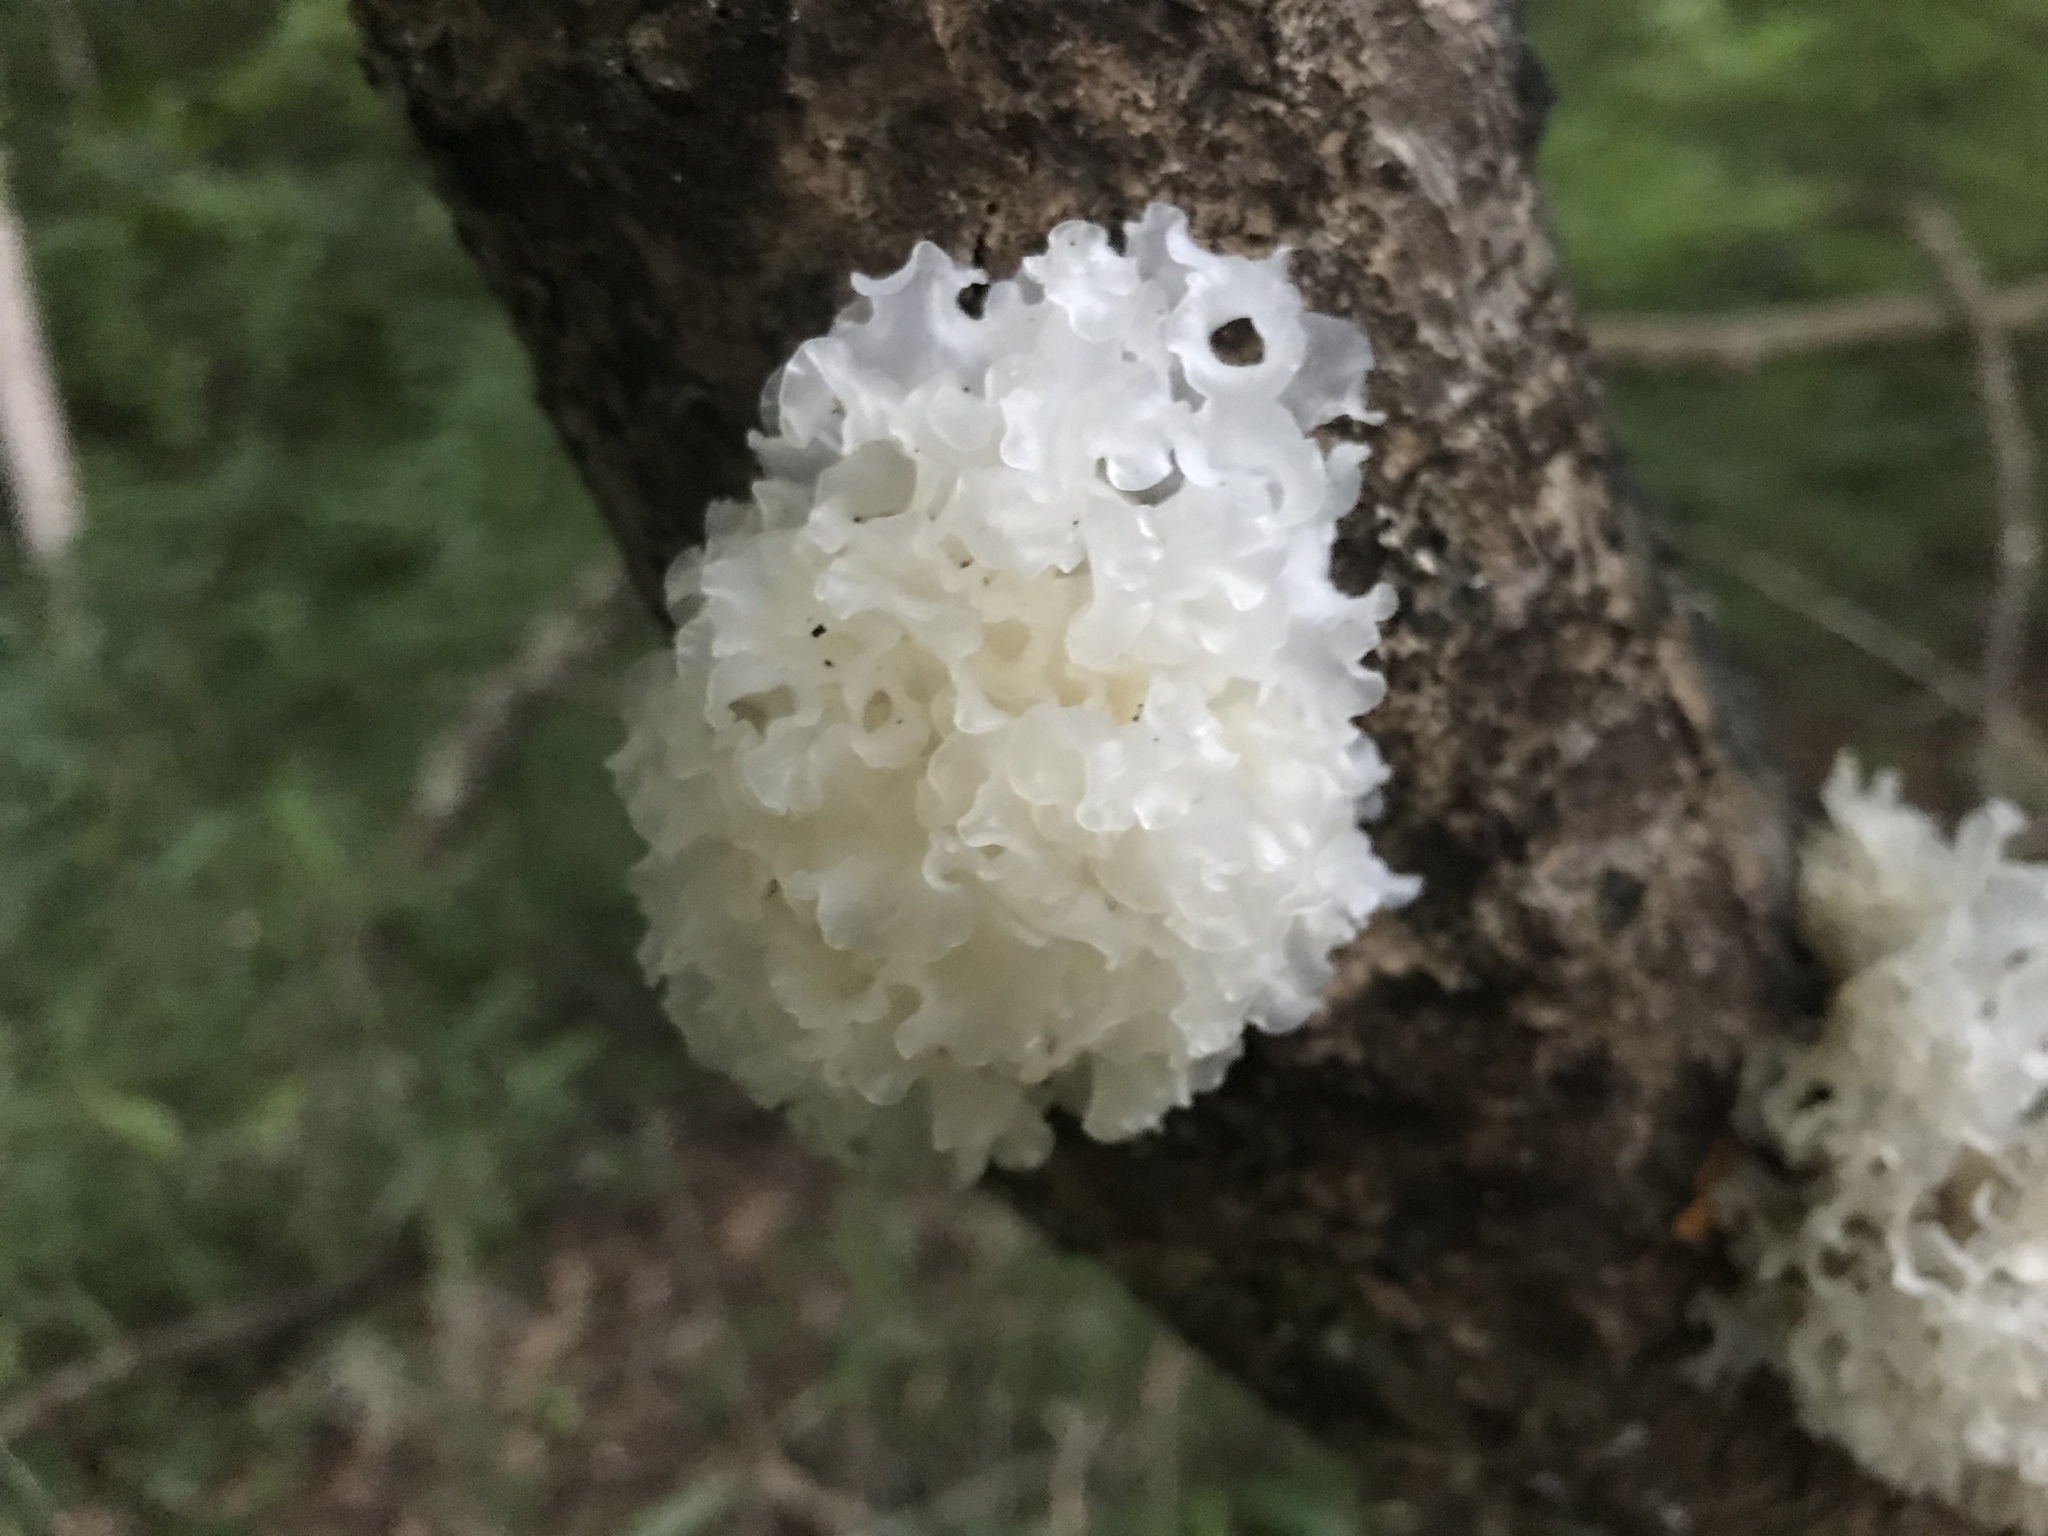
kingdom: Fungi
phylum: Basidiomycota
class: Tremellomycetes
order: Tremellales
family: Tremellaceae
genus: Tremella
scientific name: Tremella fuciformis
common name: Snow fungus
